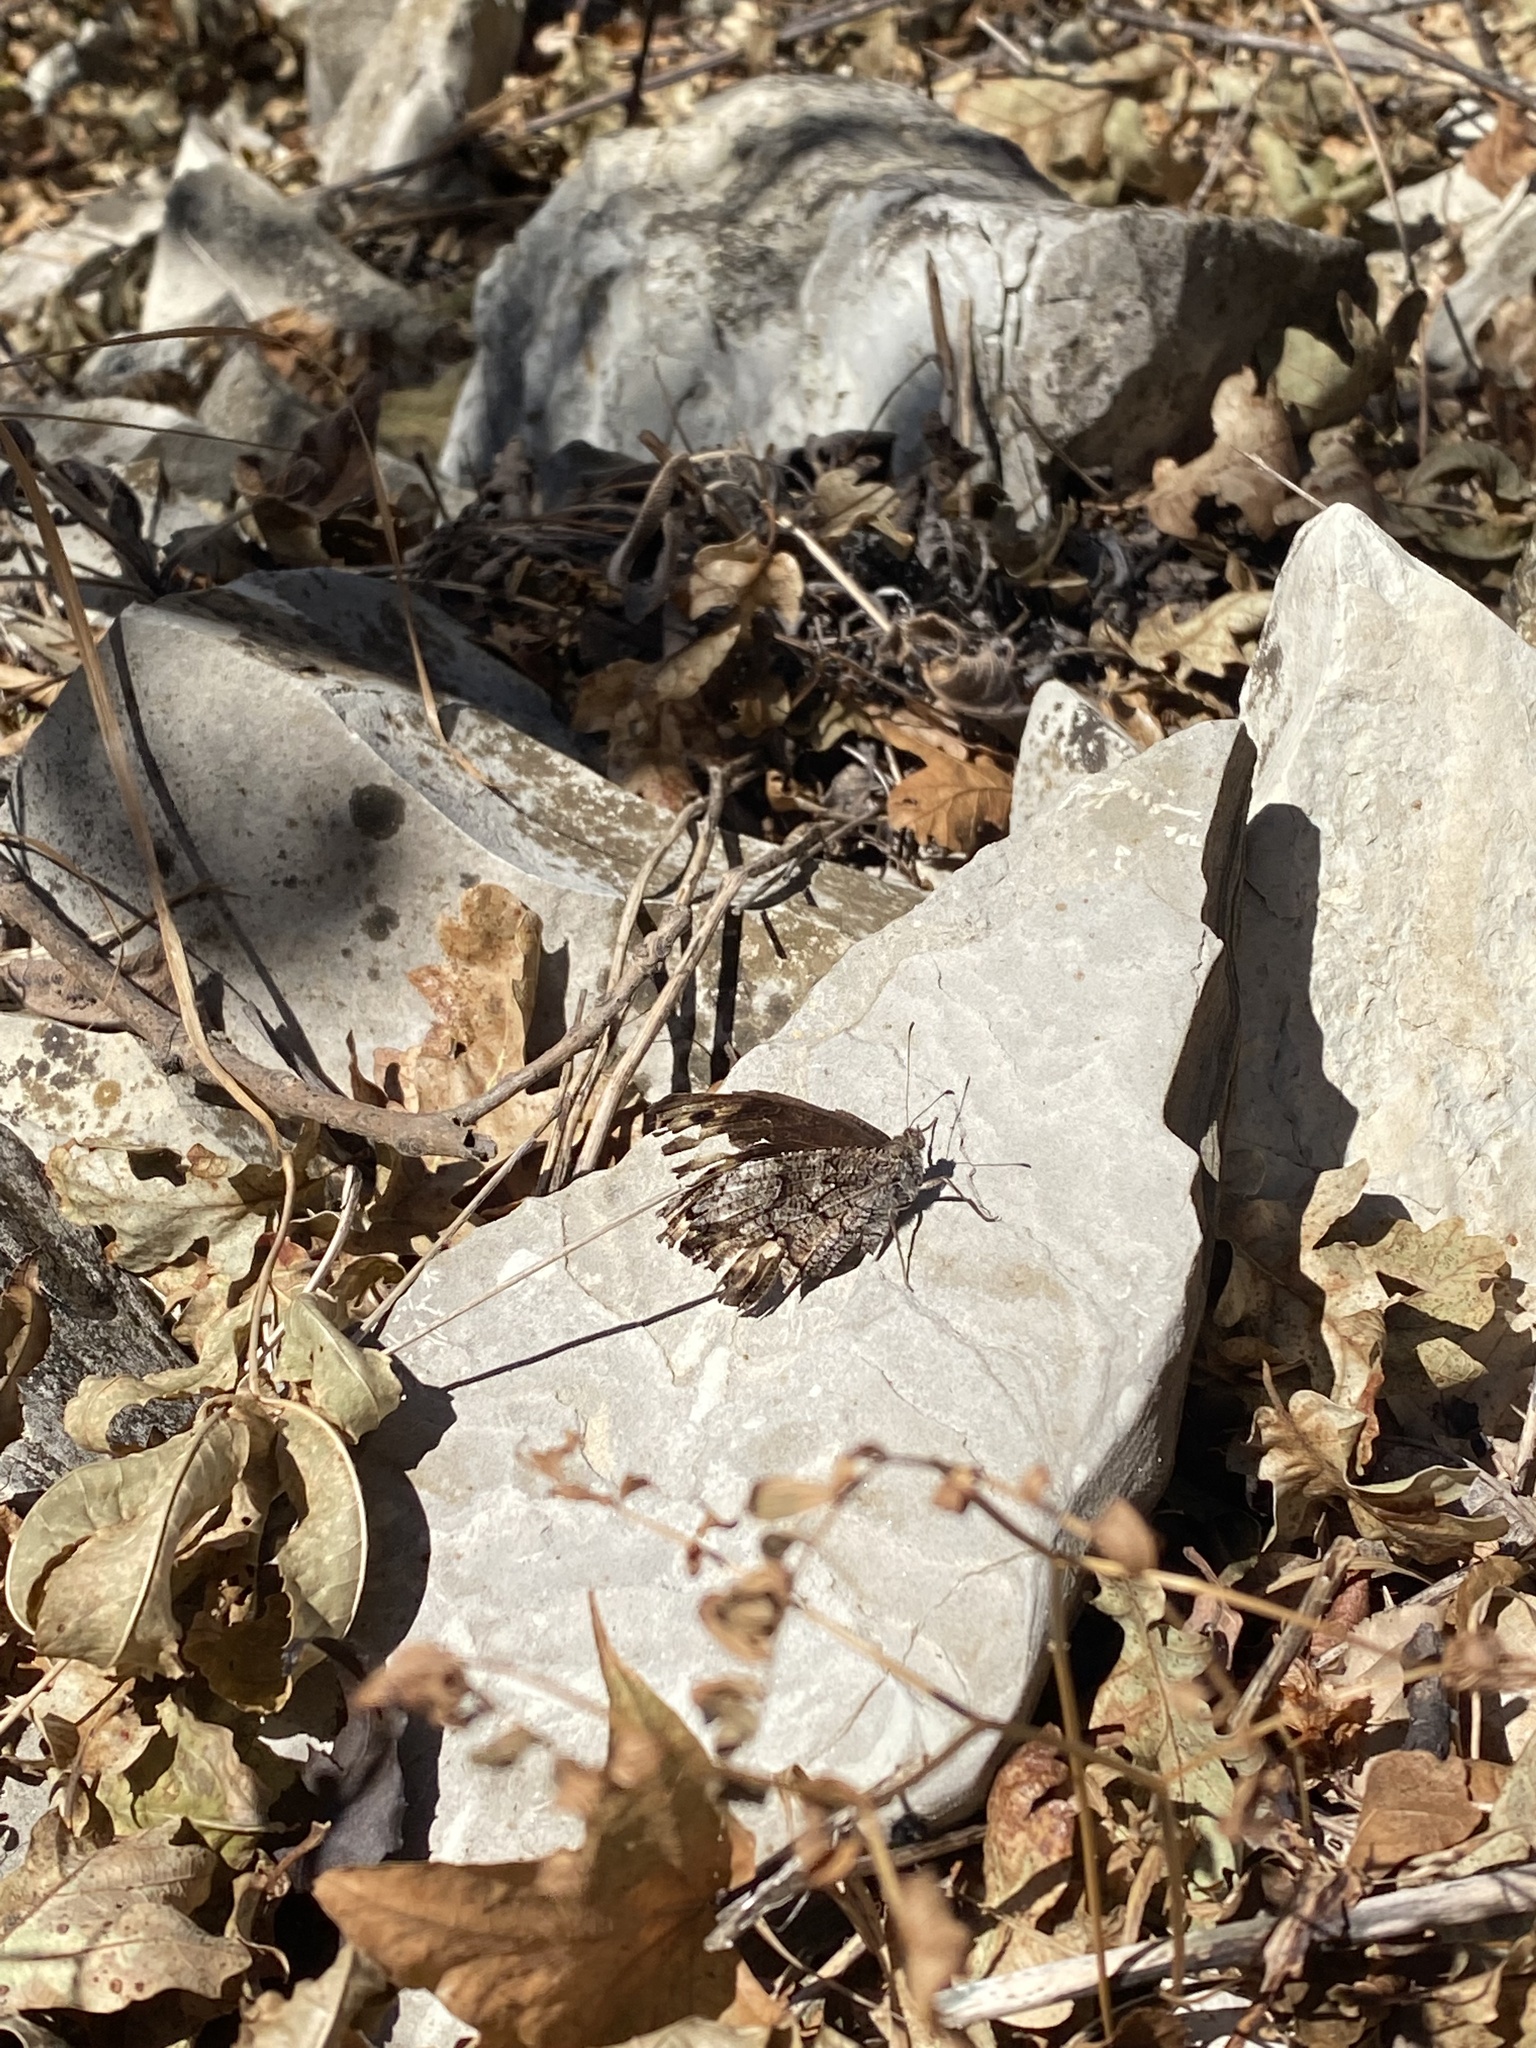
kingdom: Animalia
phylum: Arthropoda
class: Insecta
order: Lepidoptera
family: Nymphalidae
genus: Hipparchia
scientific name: Hipparchia fagi
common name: Woodland grayling
